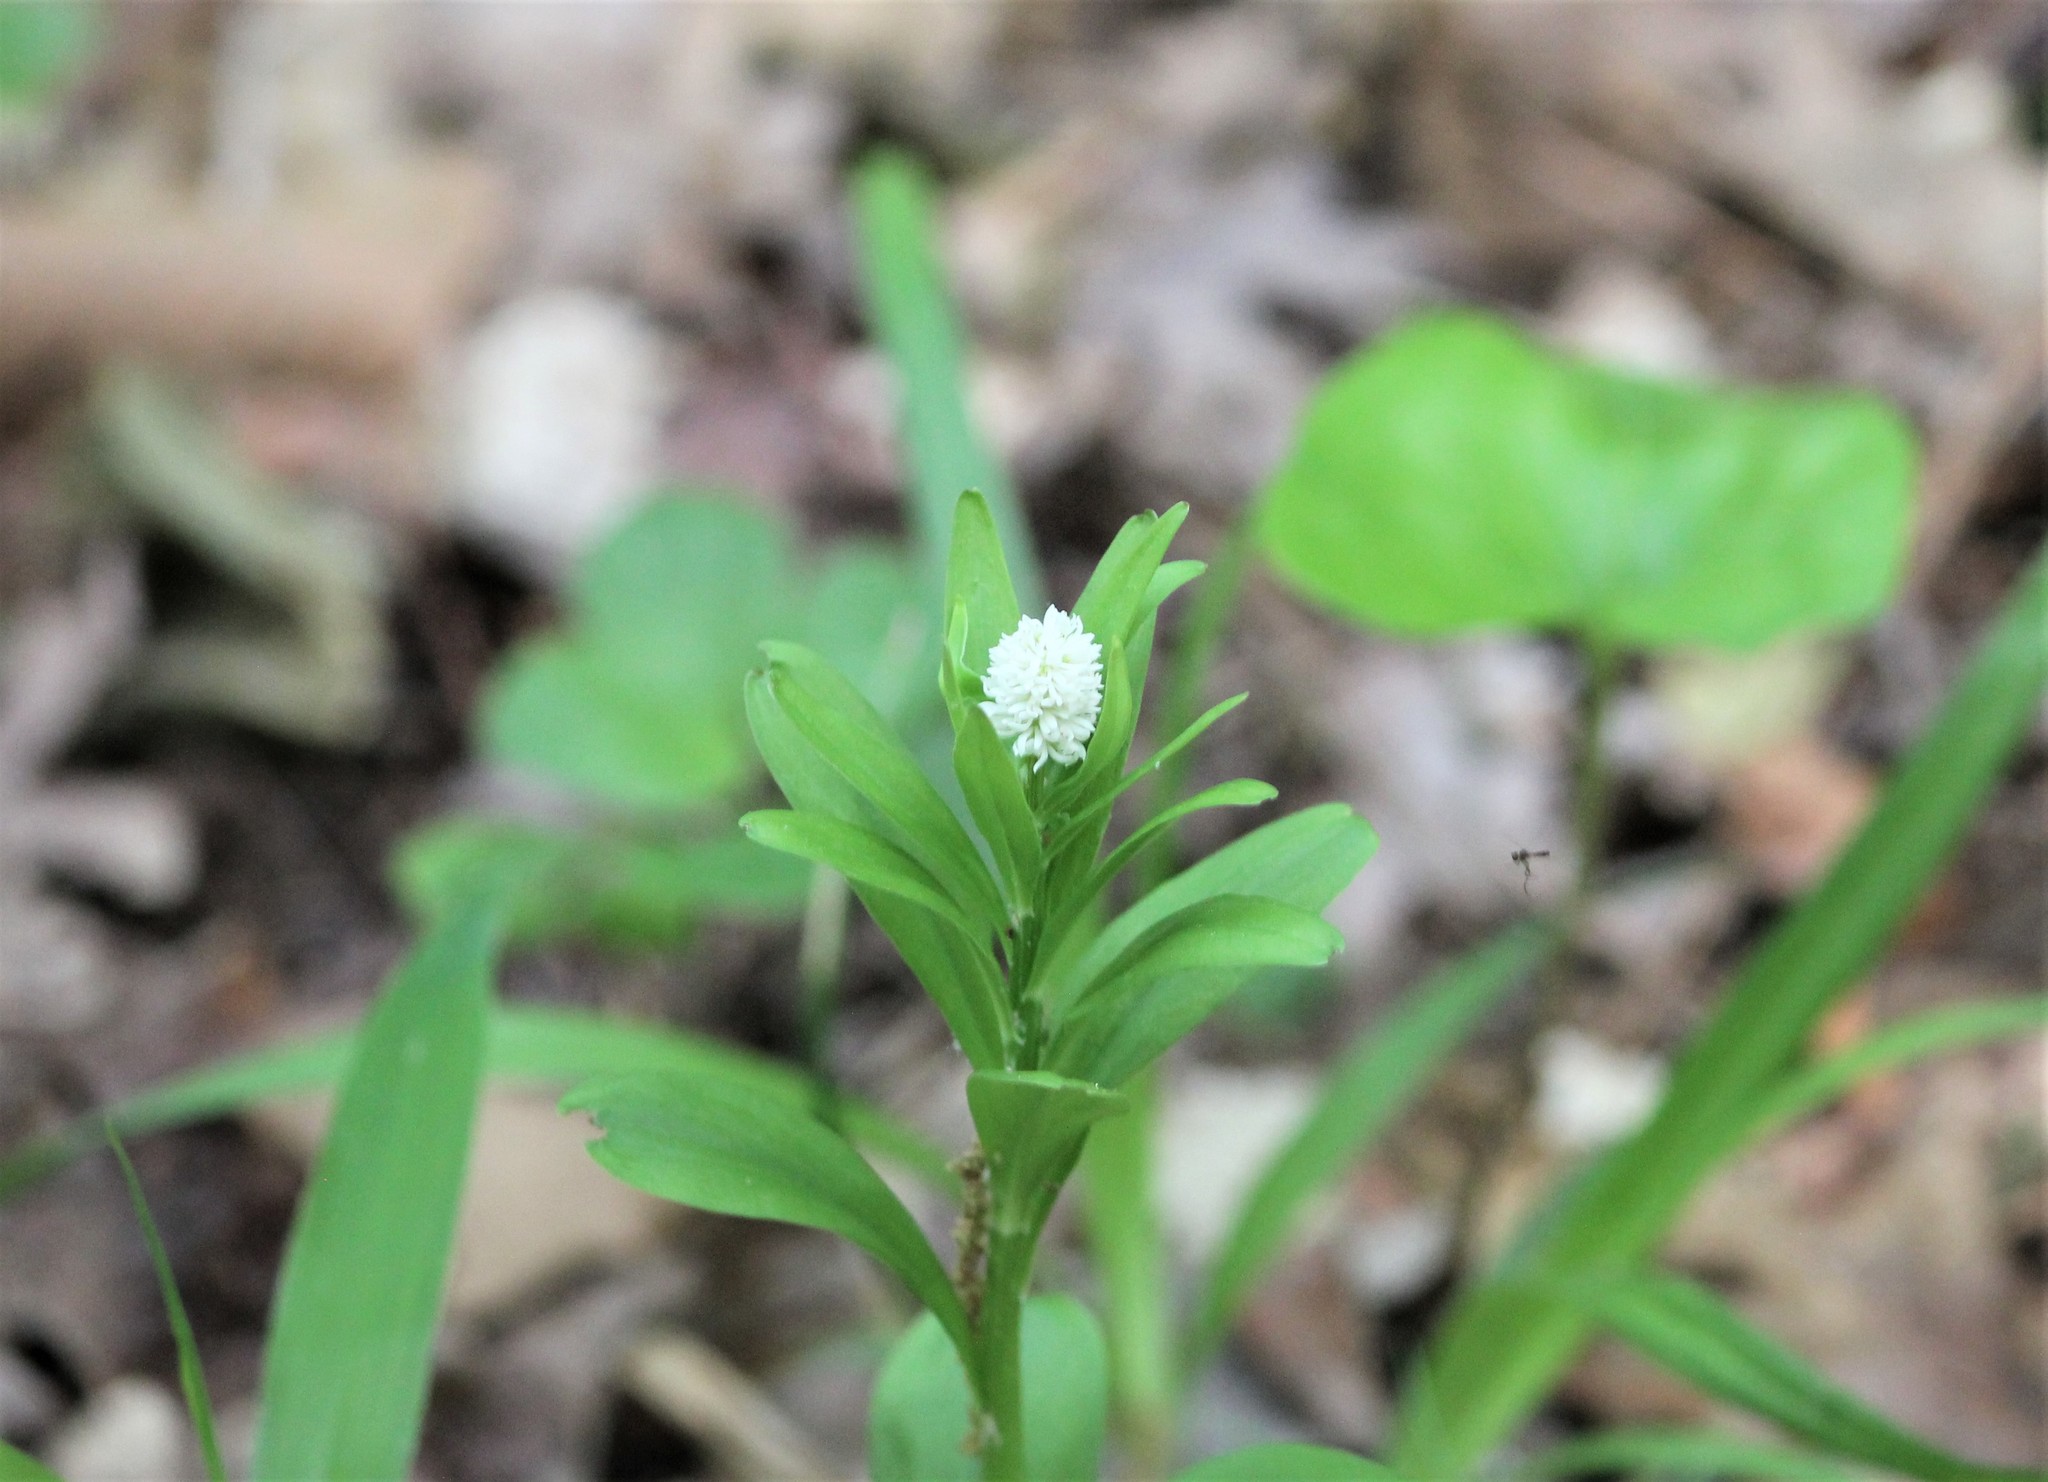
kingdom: Plantae
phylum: Tracheophyta
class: Liliopsida
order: Liliales
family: Melanthiaceae
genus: Chamaelirium
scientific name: Chamaelirium luteum
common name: Fairy-wand
